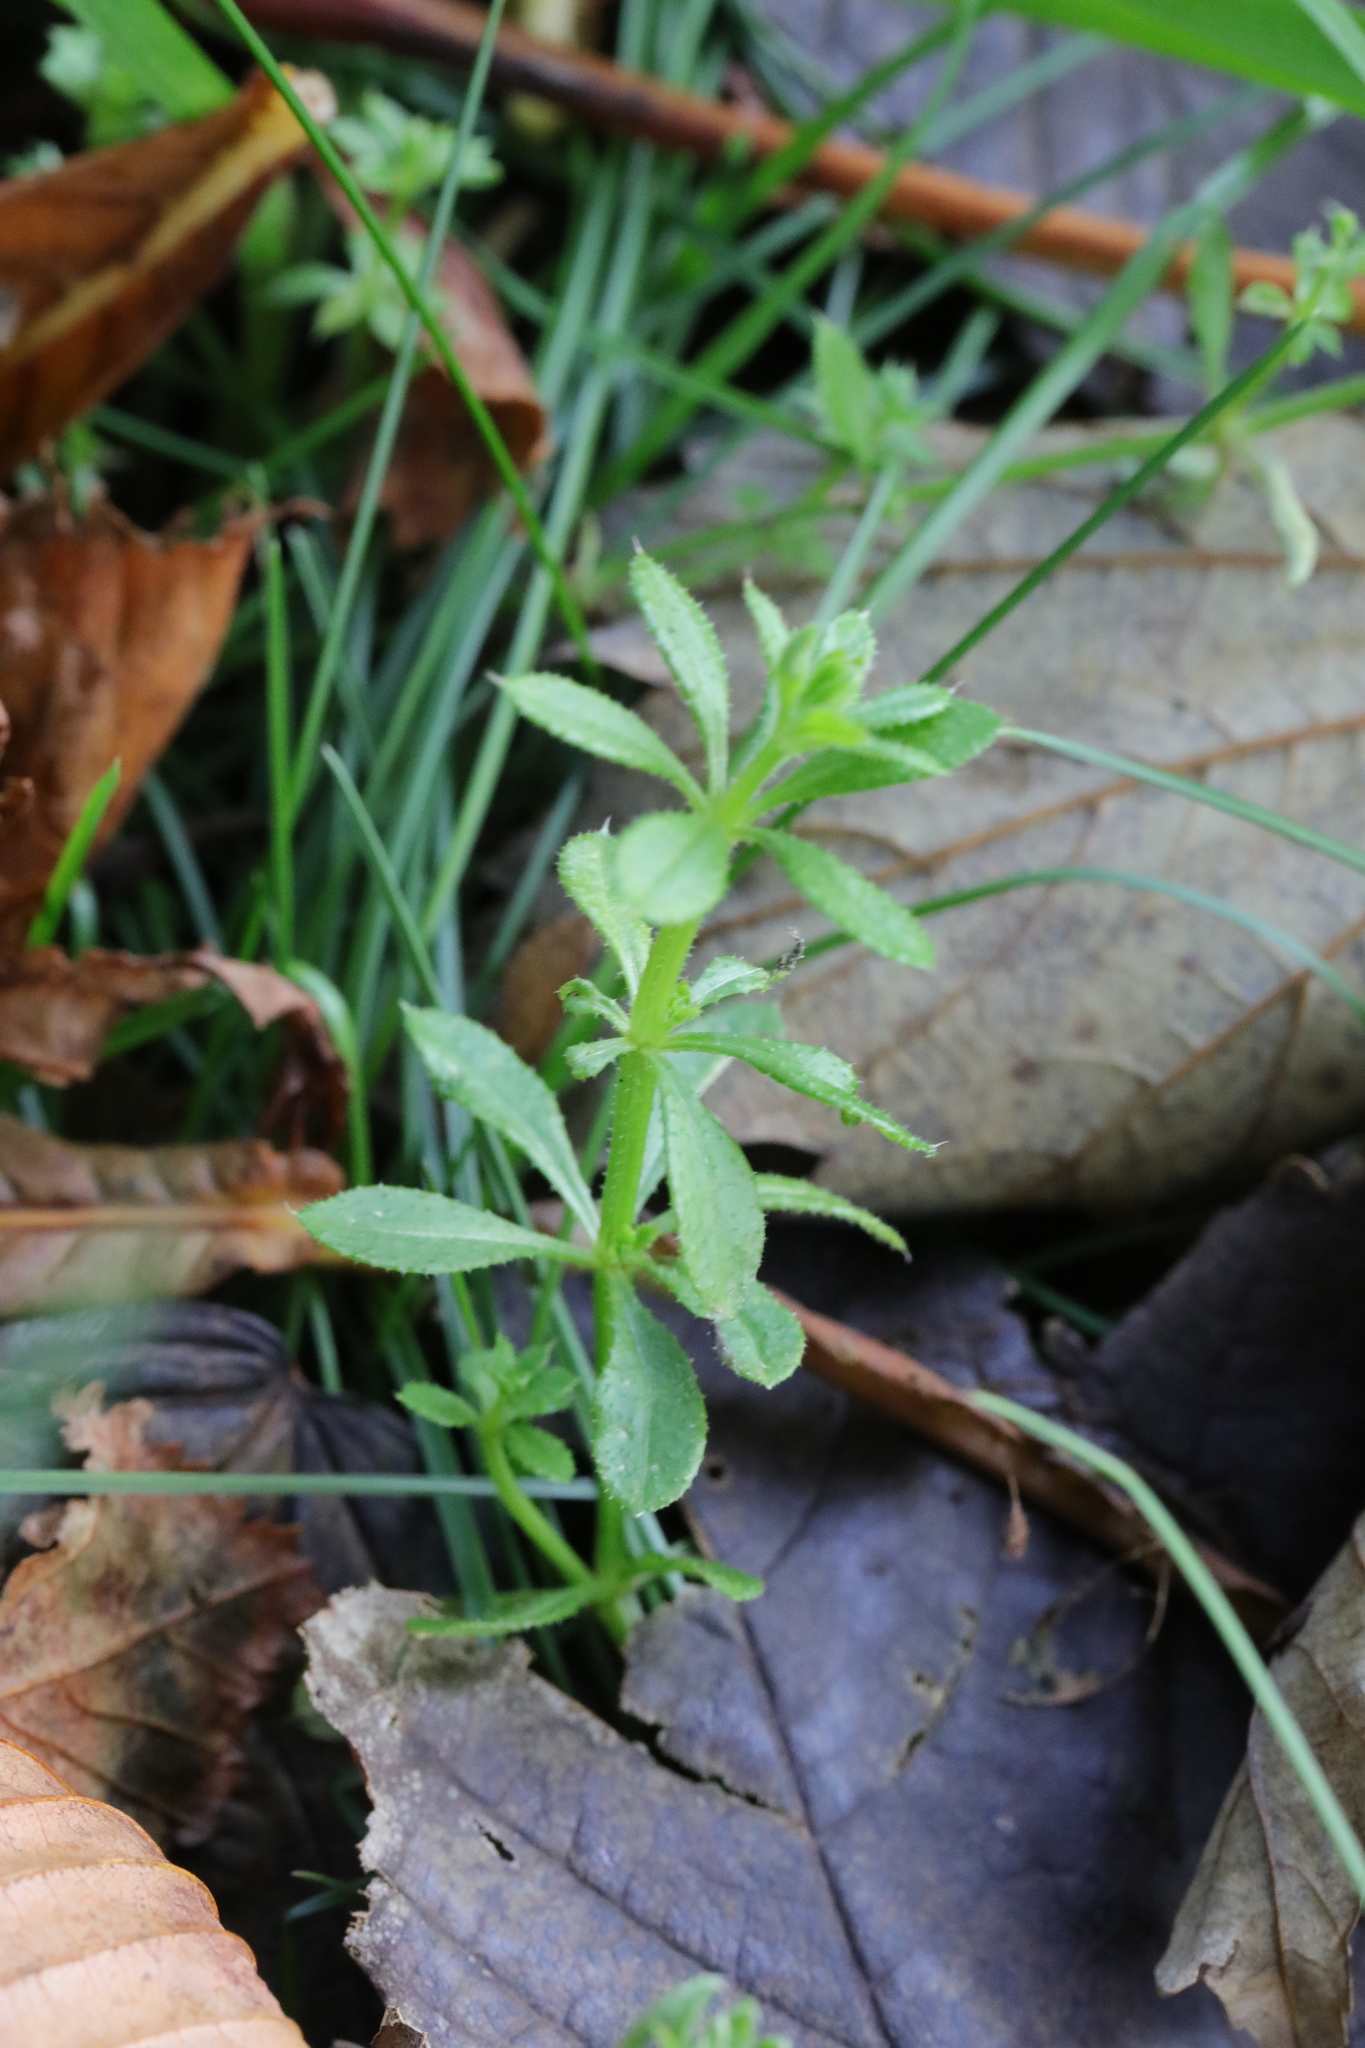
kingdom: Plantae
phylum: Tracheophyta
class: Magnoliopsida
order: Gentianales
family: Rubiaceae
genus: Galium
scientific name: Galium aparine
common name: Cleavers
